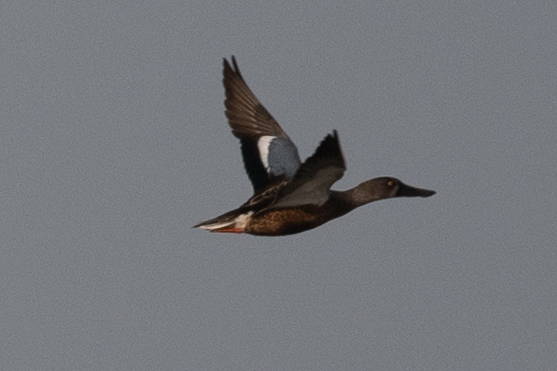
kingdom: Animalia
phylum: Chordata
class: Aves
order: Anseriformes
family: Anatidae
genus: Spatula
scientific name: Spatula clypeata
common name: Northern shoveler
